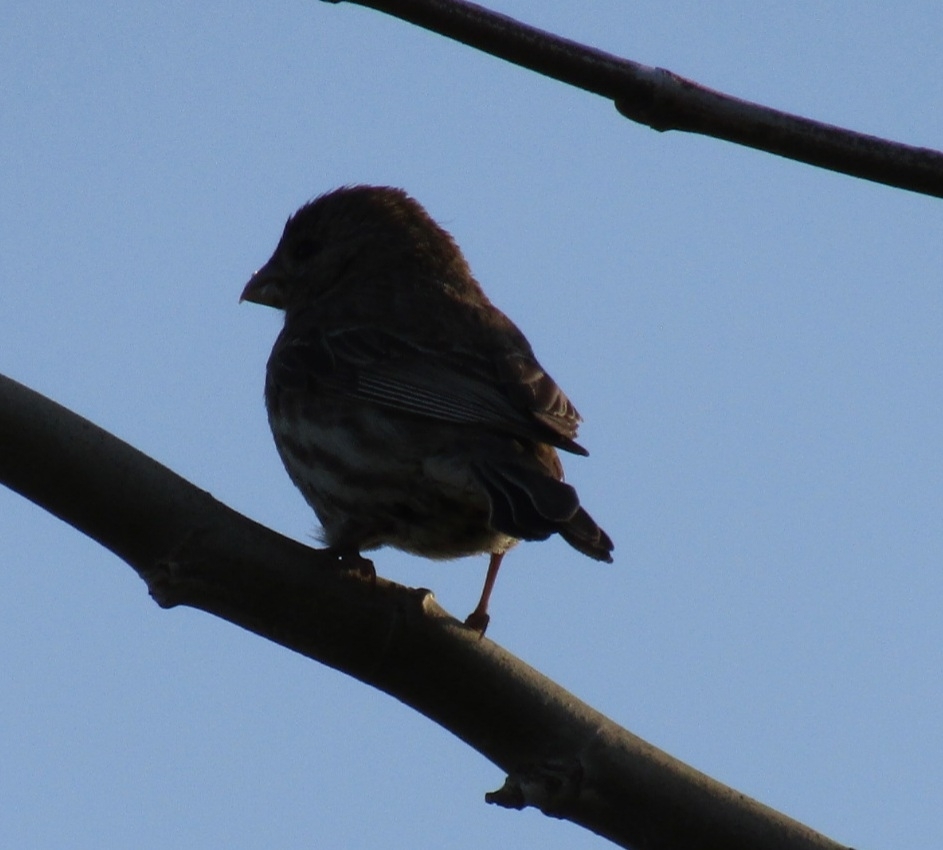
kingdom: Animalia
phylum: Chordata
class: Aves
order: Passeriformes
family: Fringillidae
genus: Haemorhous
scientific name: Haemorhous mexicanus
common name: House finch
